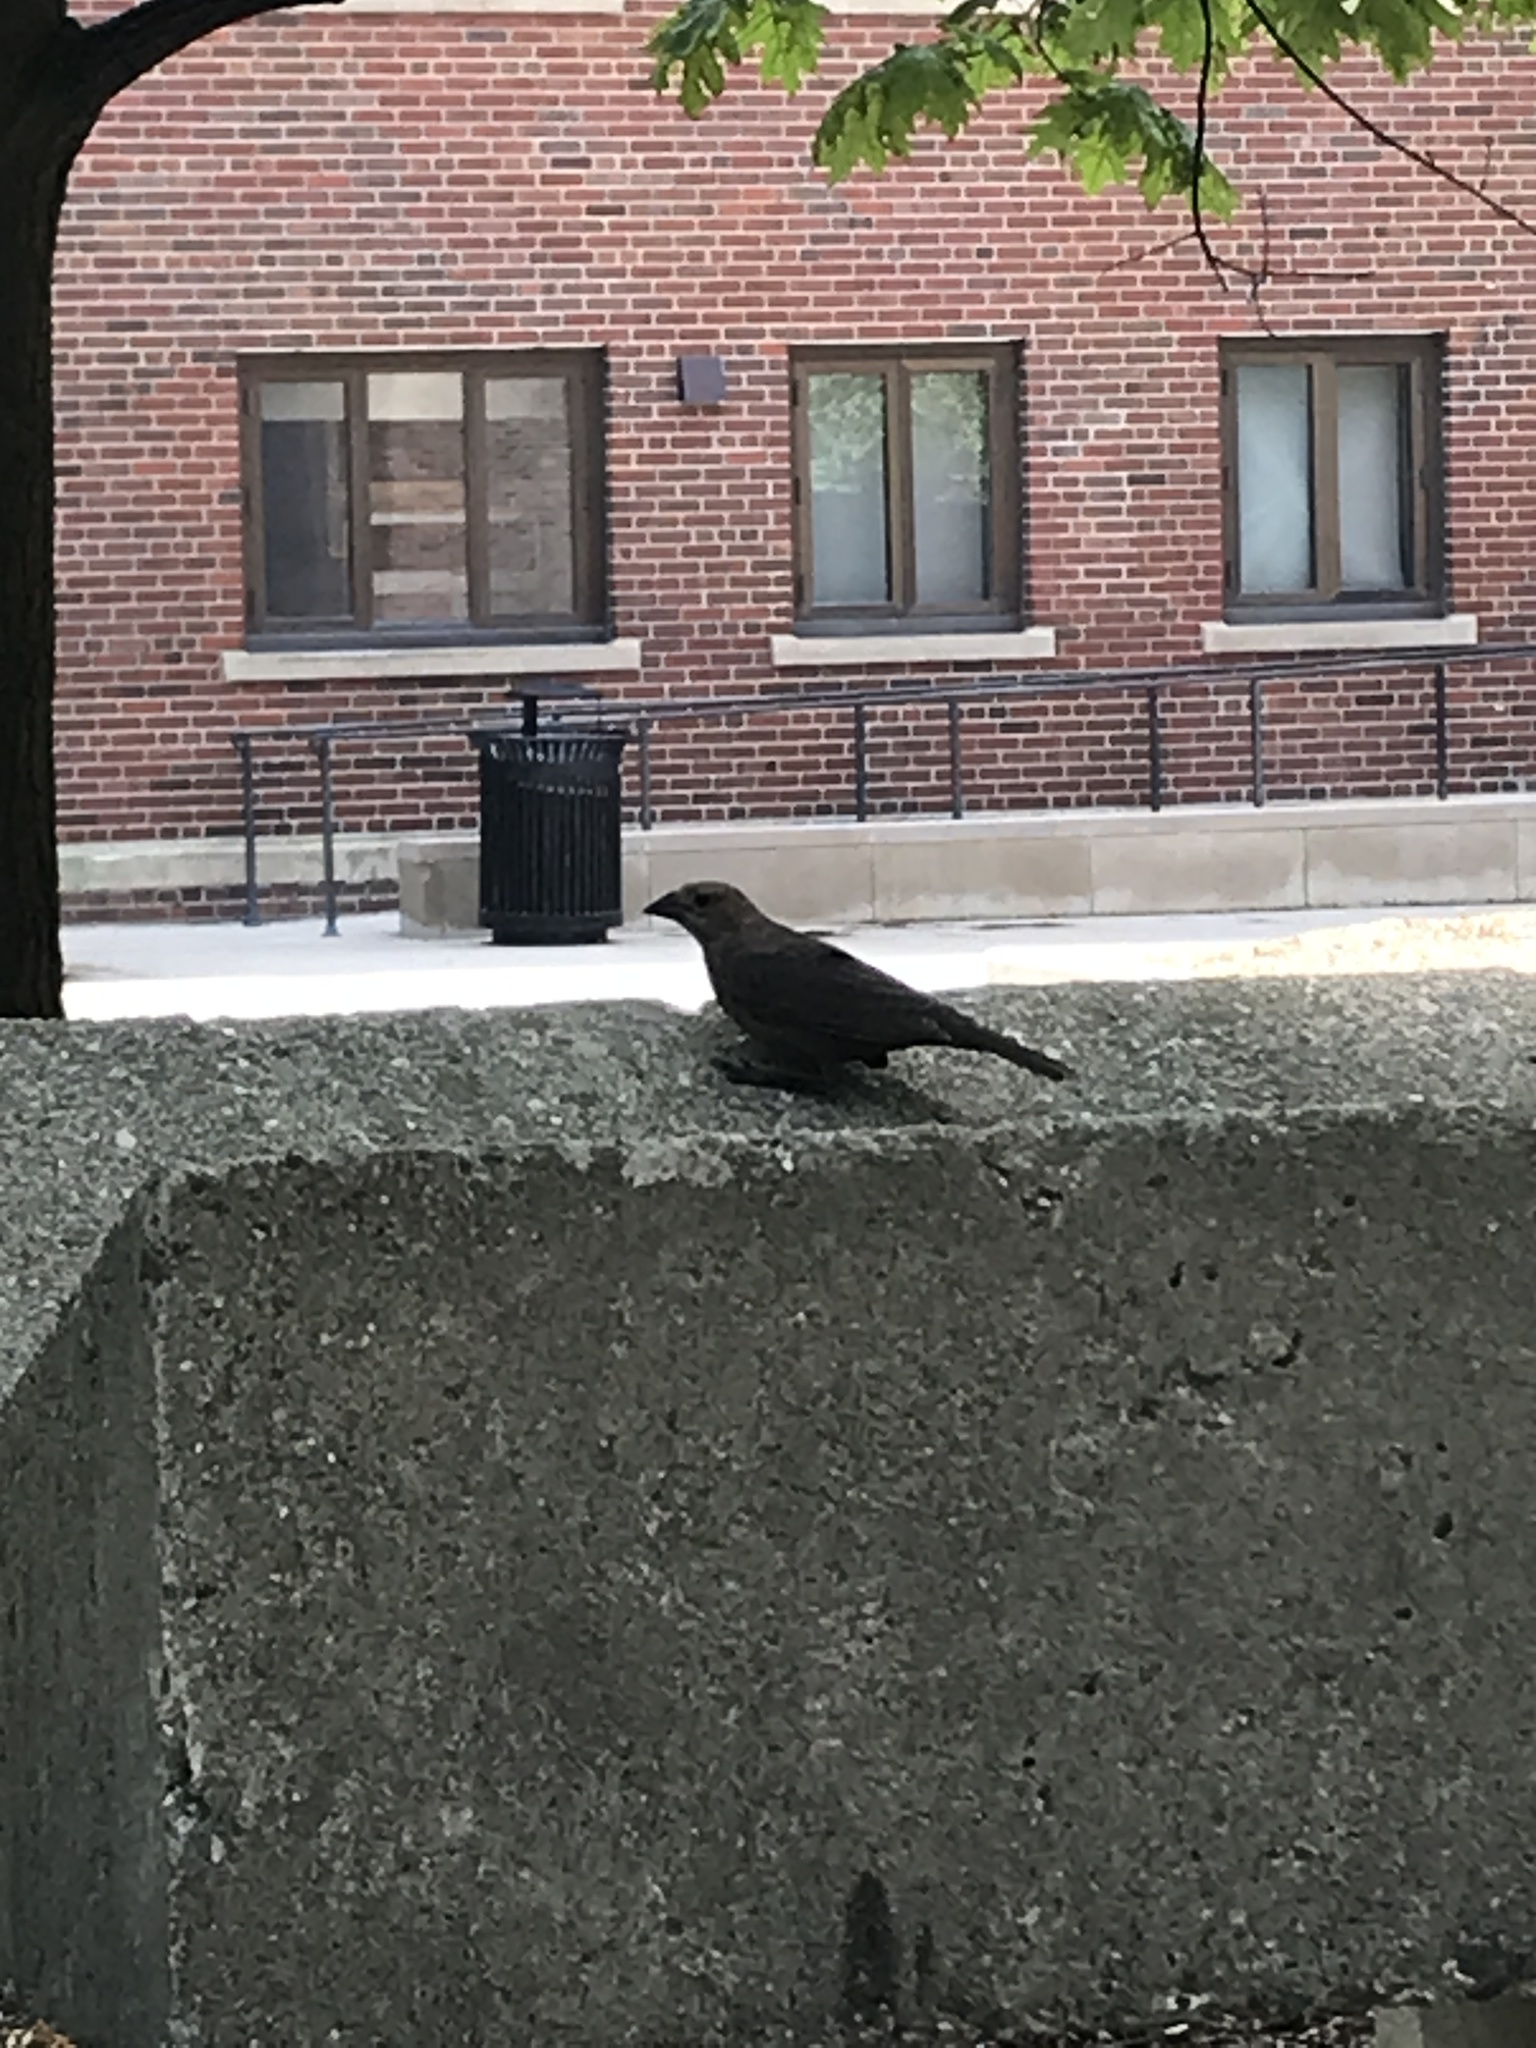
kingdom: Animalia
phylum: Chordata
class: Aves
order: Passeriformes
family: Icteridae
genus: Molothrus
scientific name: Molothrus ater
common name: Brown-headed cowbird
